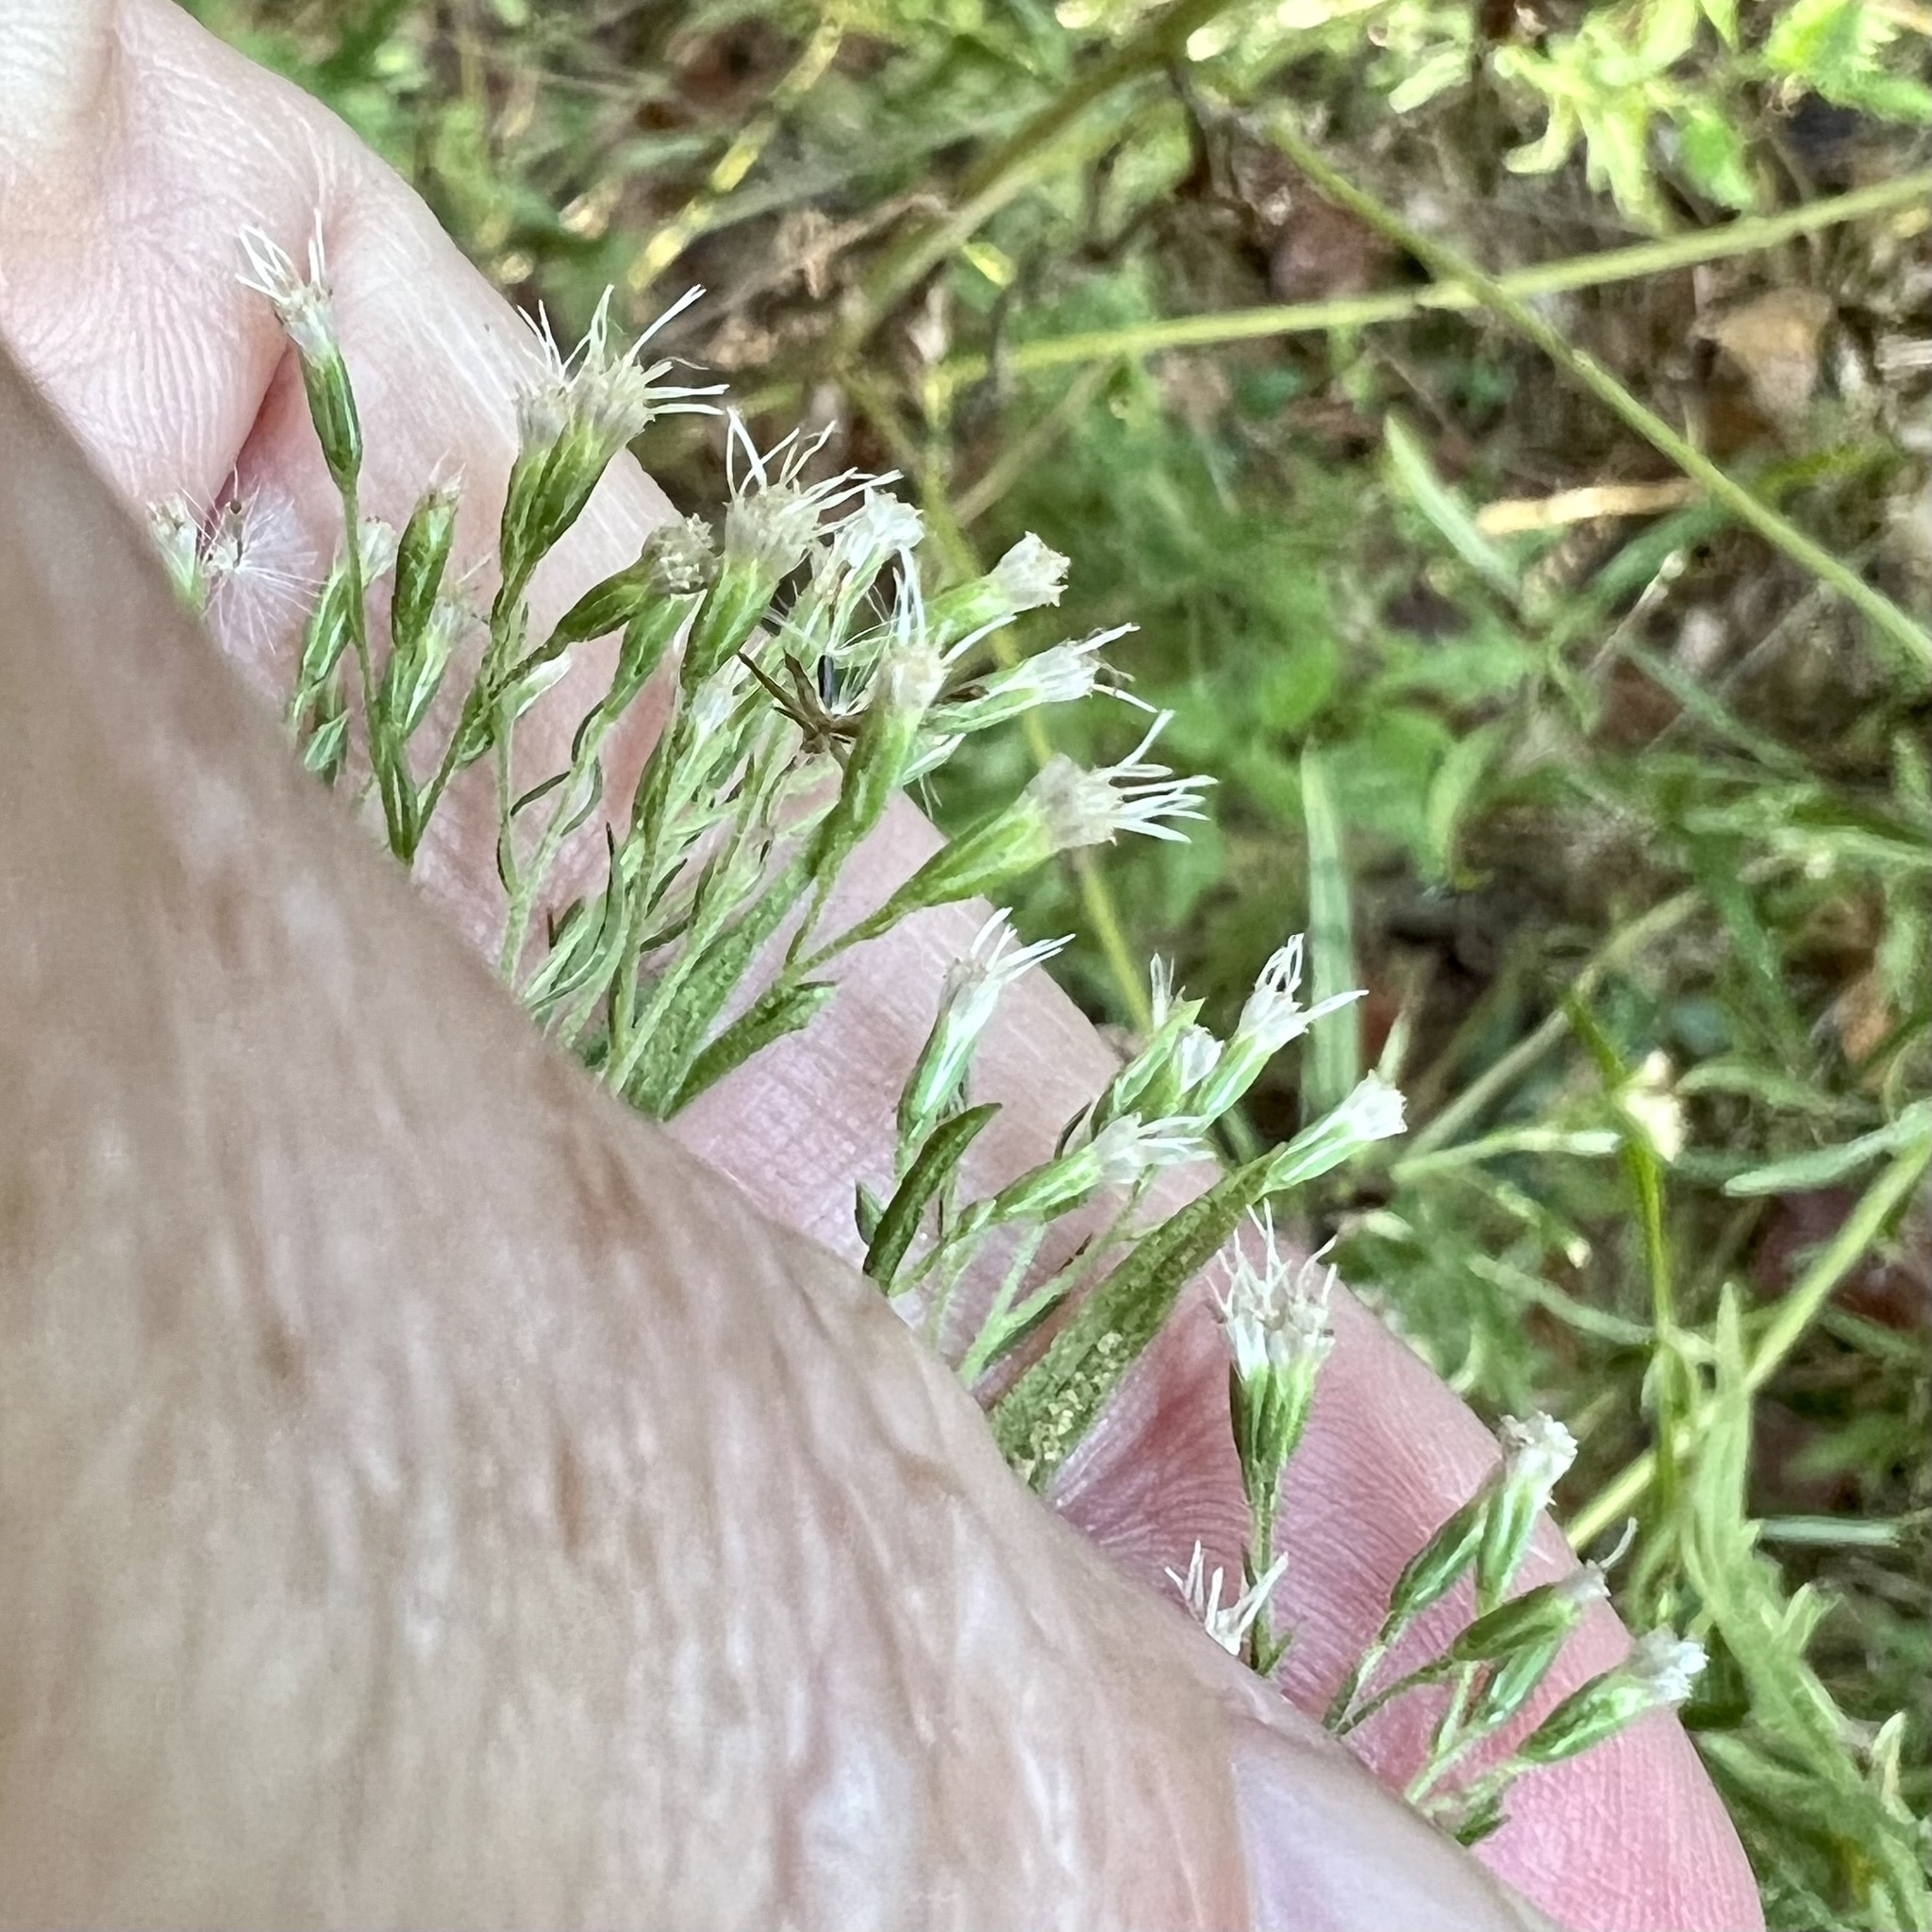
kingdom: Plantae
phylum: Tracheophyta
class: Magnoliopsida
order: Asterales
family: Asteraceae
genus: Eupatorium
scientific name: Eupatorium pinnatifidum
